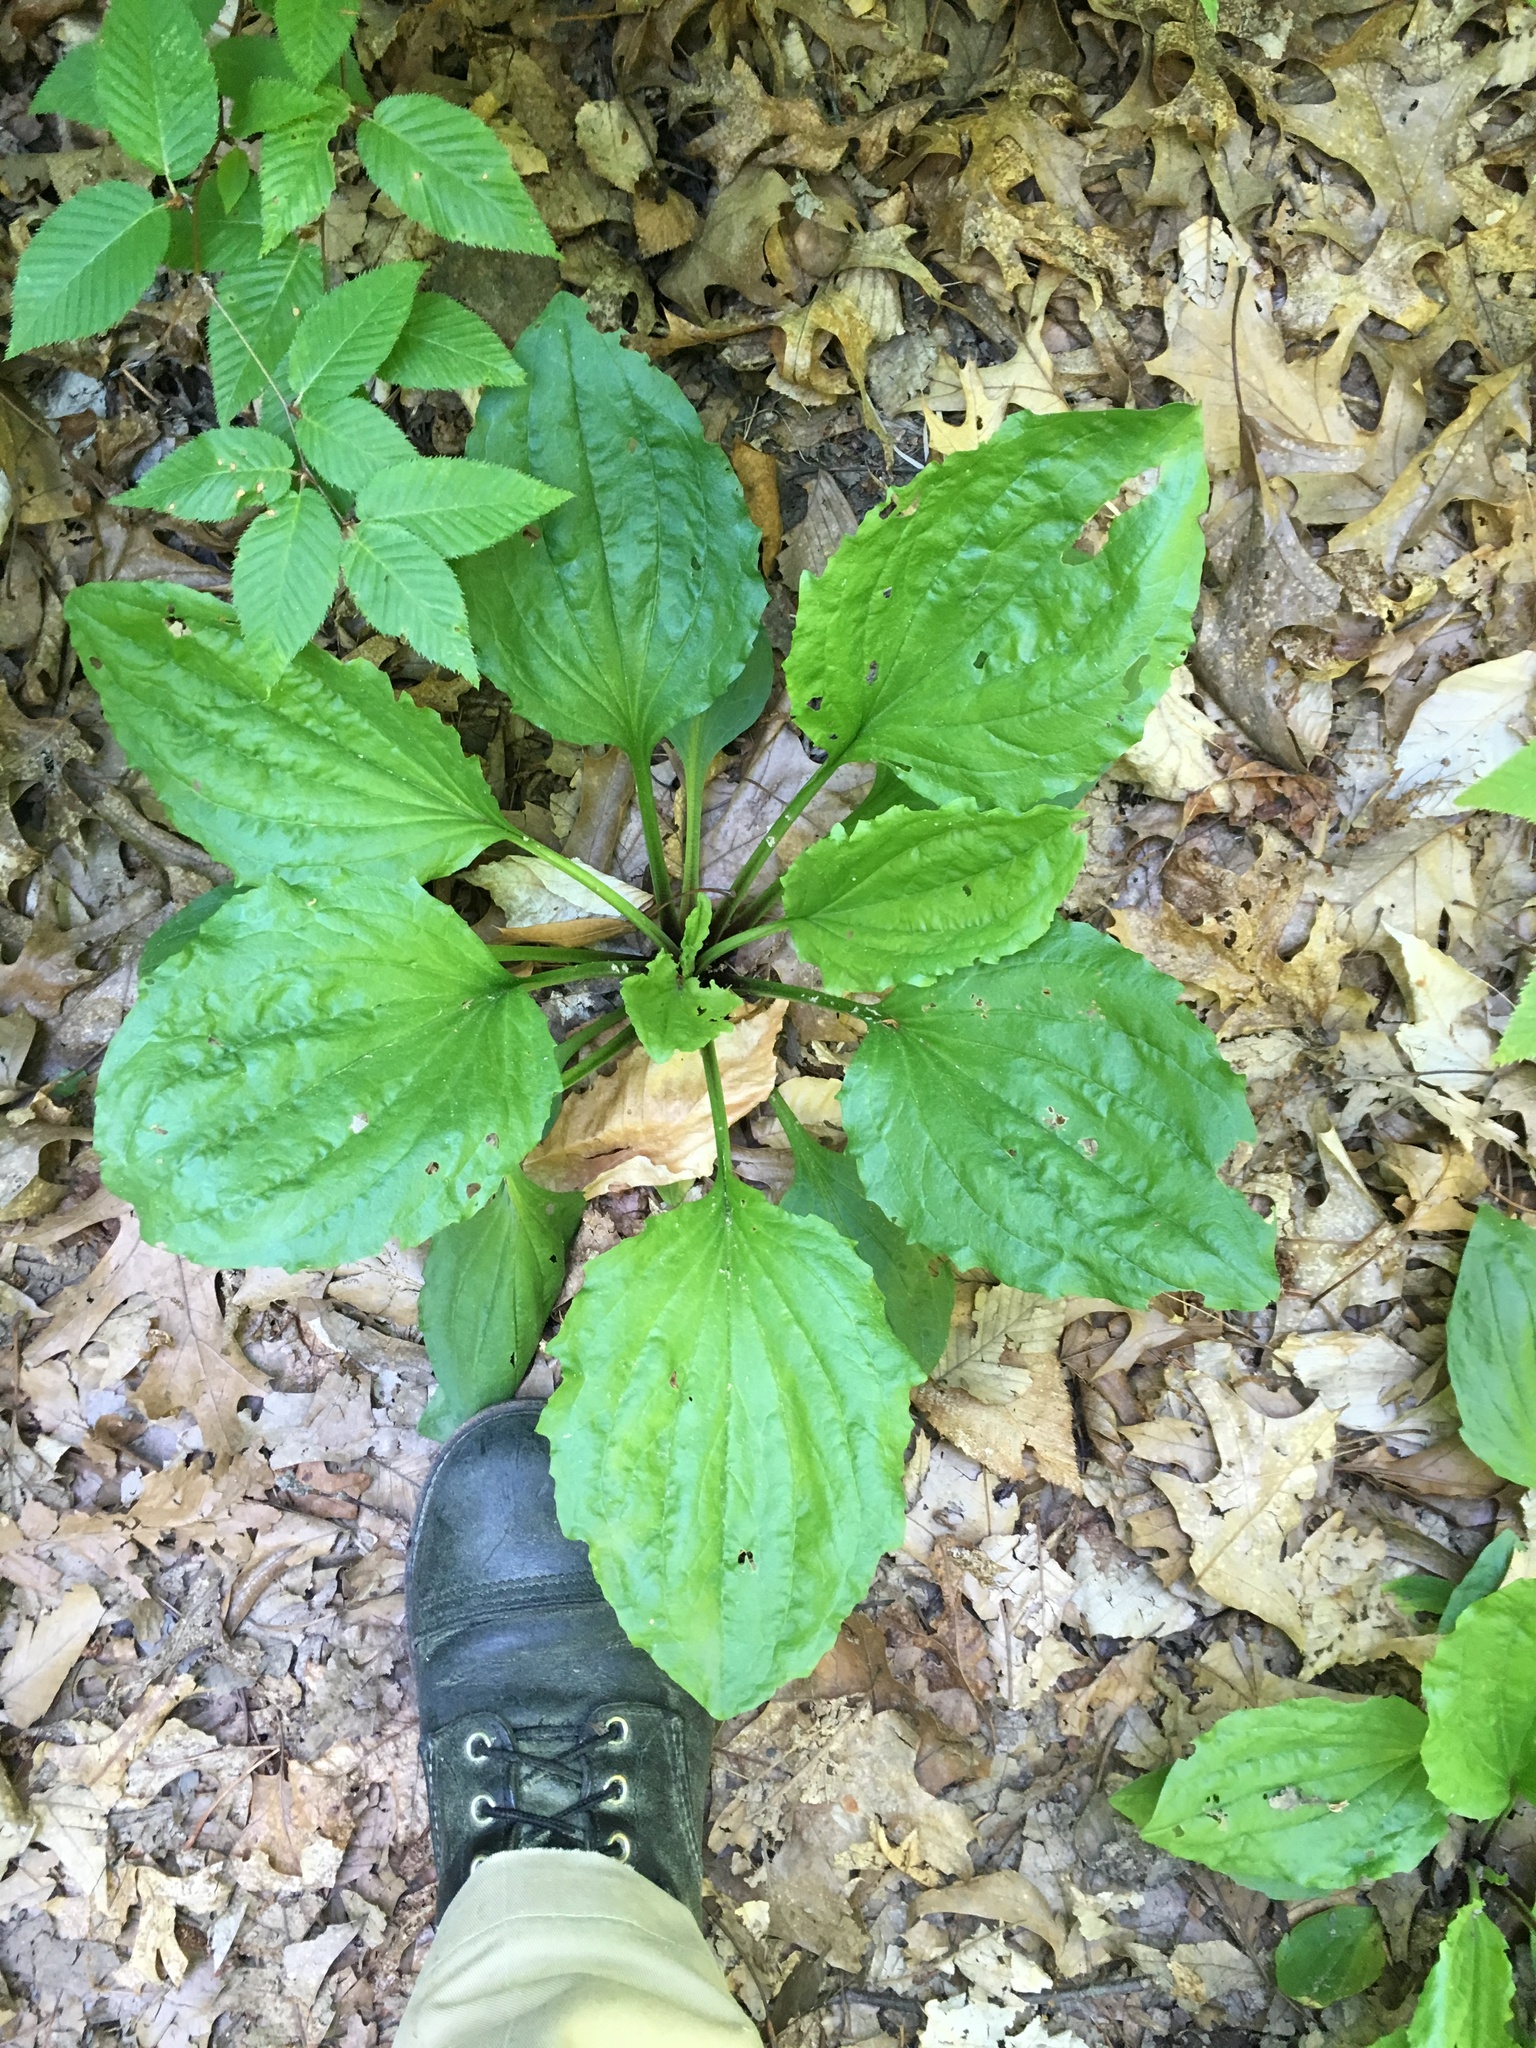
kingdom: Plantae
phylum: Tracheophyta
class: Magnoliopsida
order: Lamiales
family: Plantaginaceae
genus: Plantago
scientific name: Plantago rugelii
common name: American plantain
